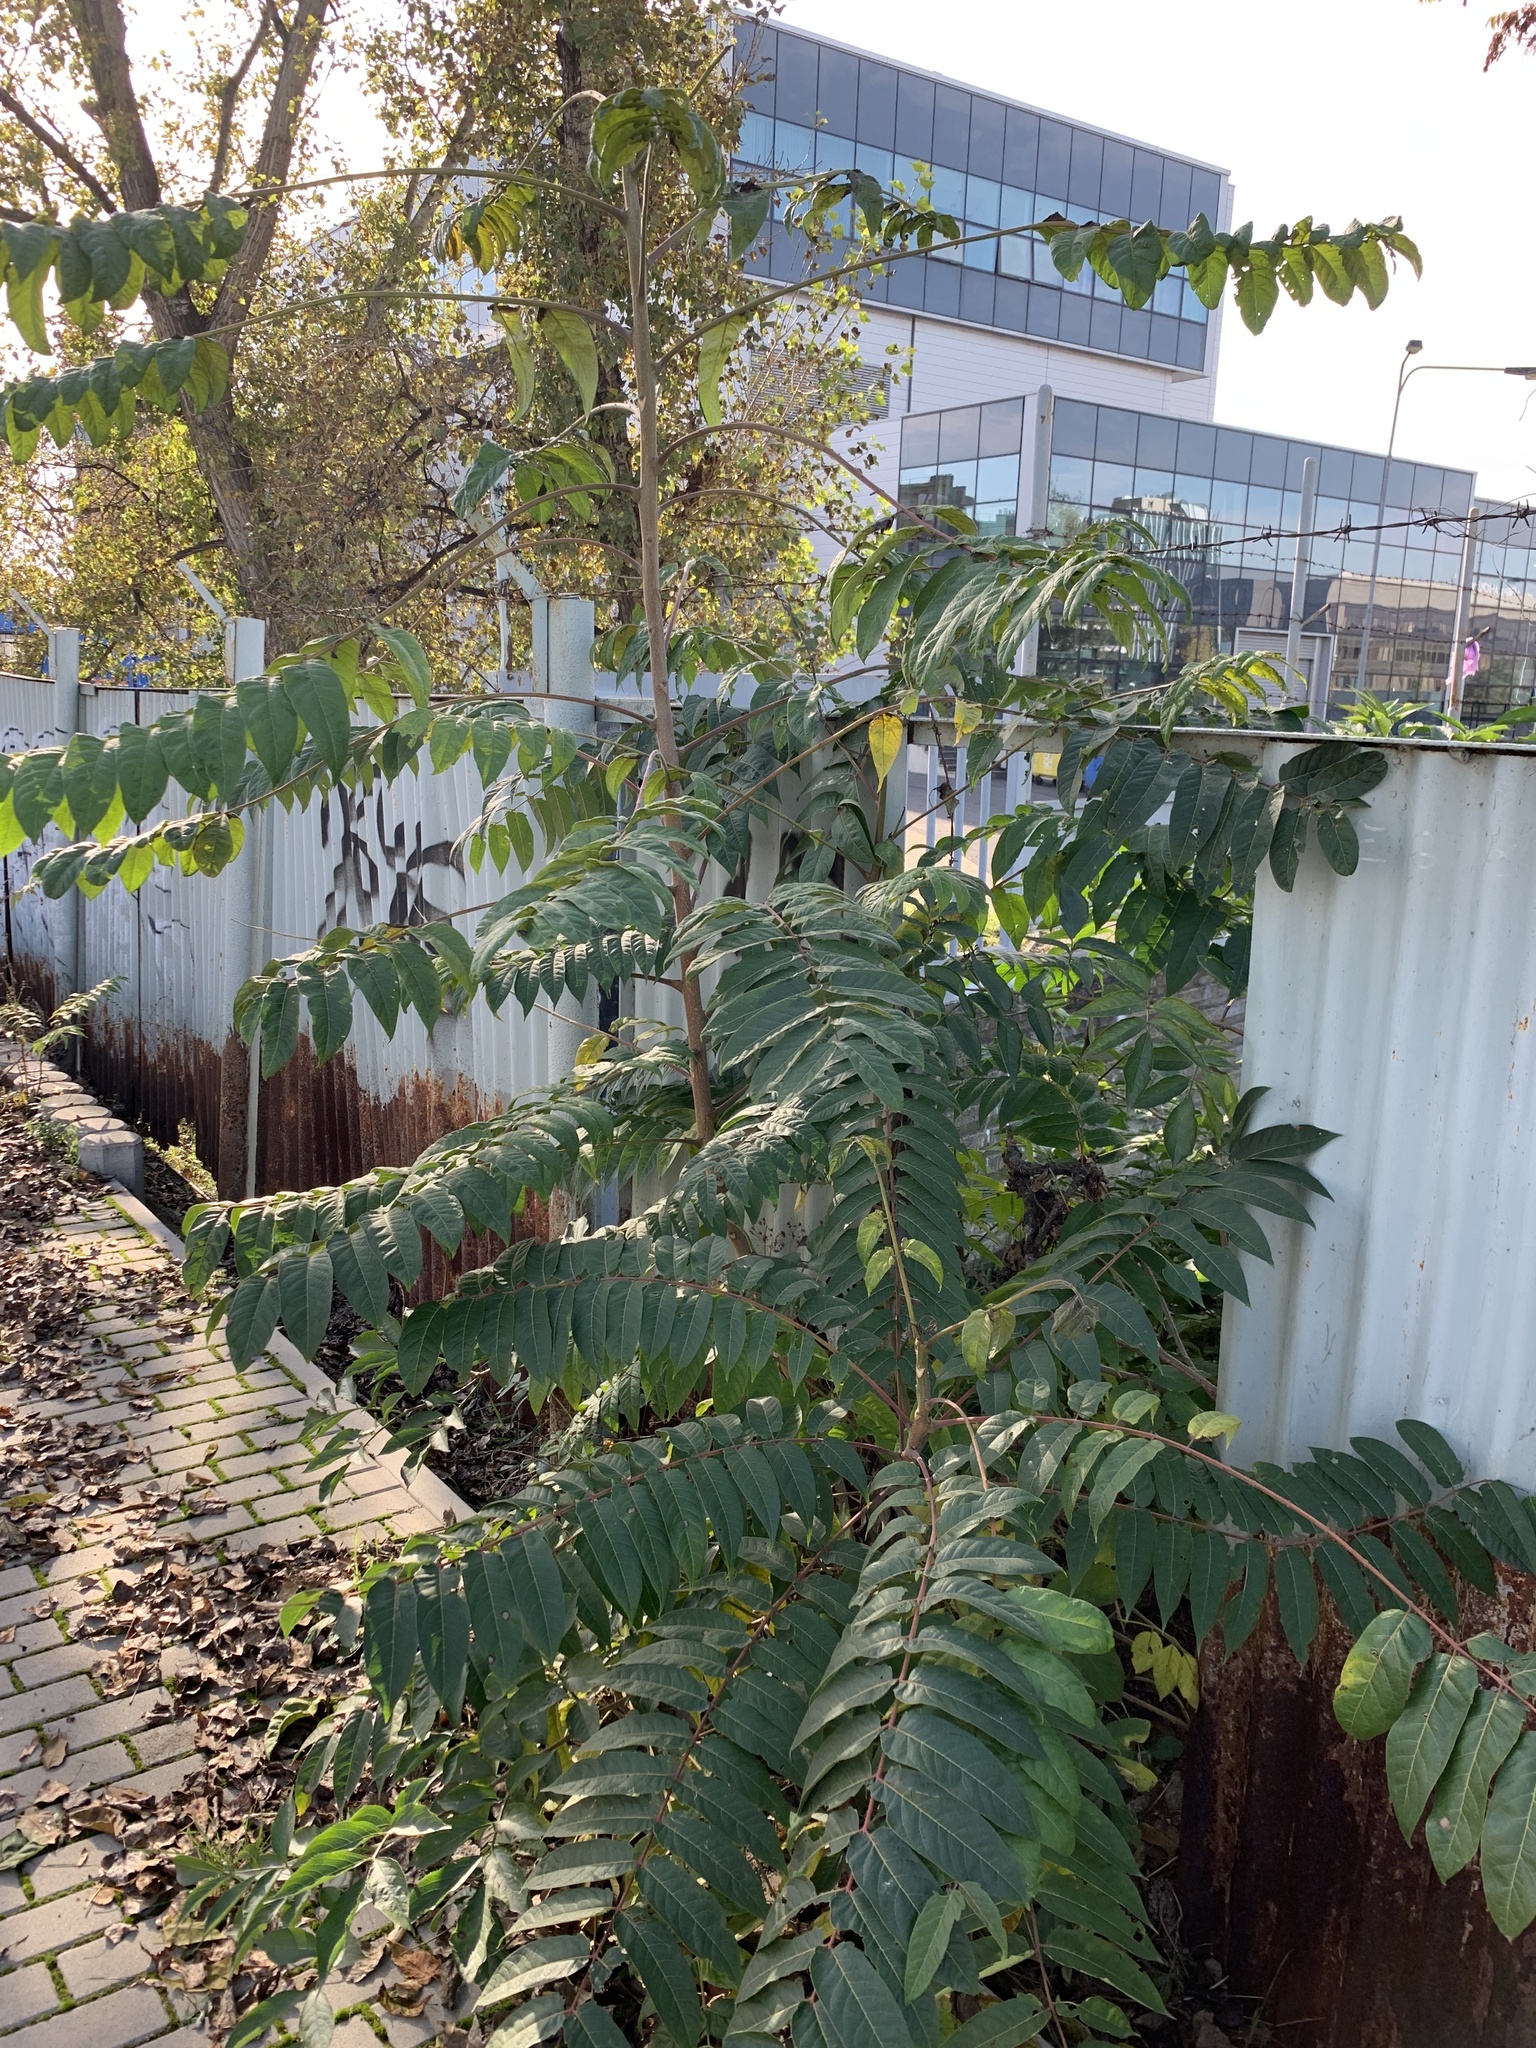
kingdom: Plantae
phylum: Tracheophyta
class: Magnoliopsida
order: Sapindales
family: Simaroubaceae
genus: Ailanthus
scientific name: Ailanthus altissima
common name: Tree-of-heaven
